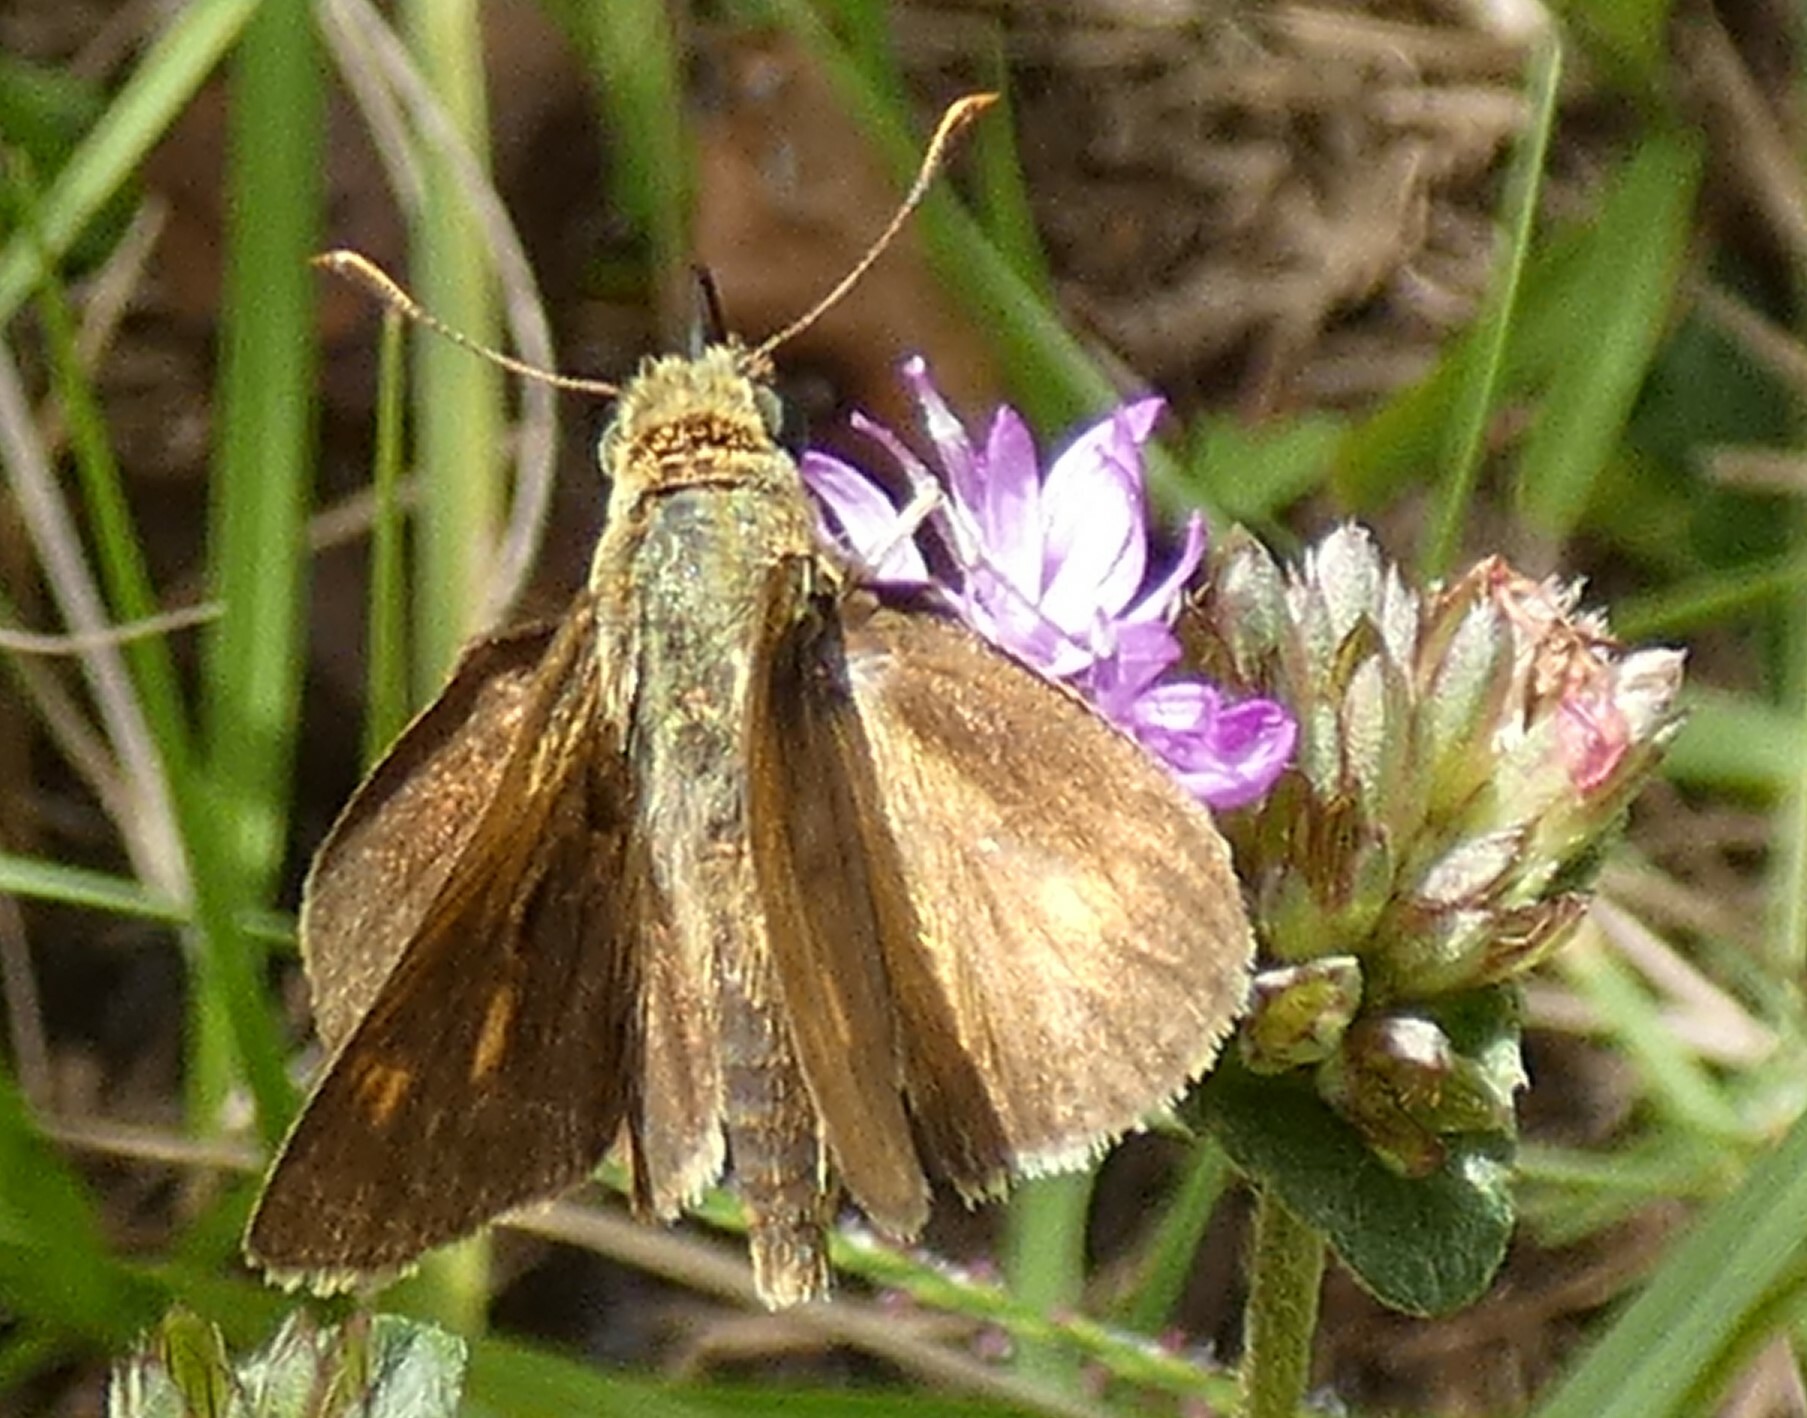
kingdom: Animalia
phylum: Arthropoda
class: Insecta
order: Lepidoptera
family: Hesperiidae
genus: Polites
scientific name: Polites egeremet
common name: Northern broken-dash
